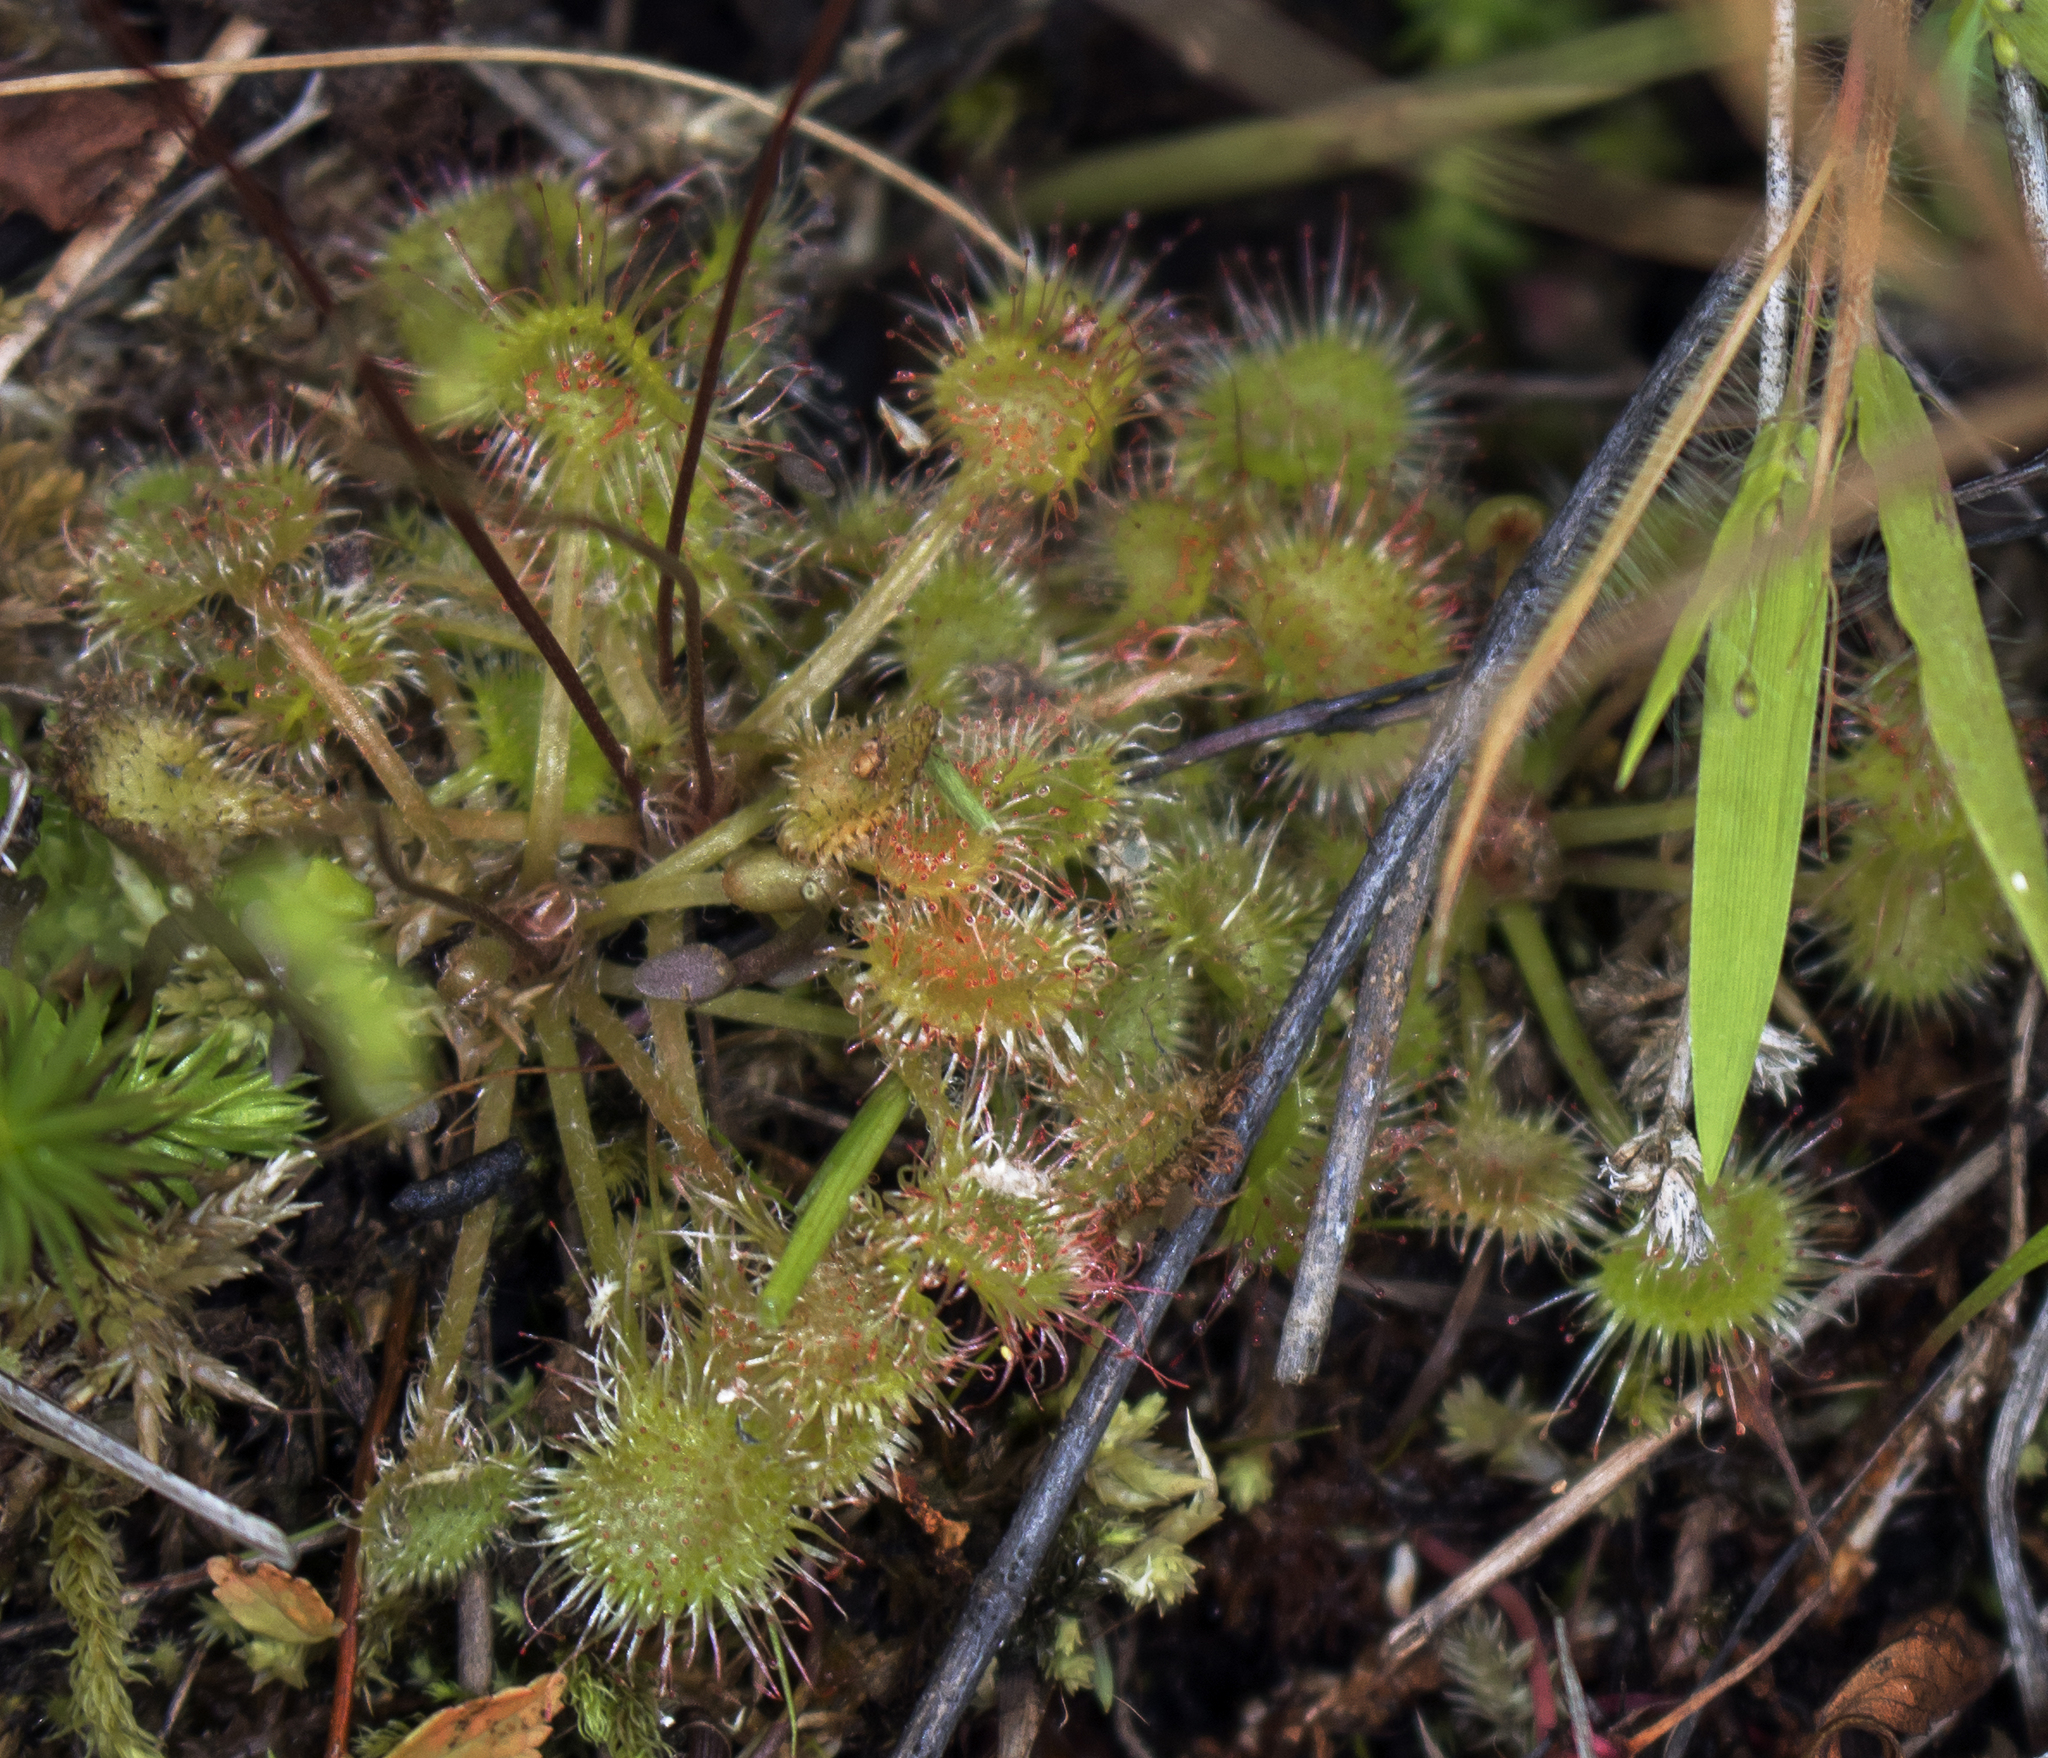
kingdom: Plantae
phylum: Tracheophyta
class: Magnoliopsida
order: Caryophyllales
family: Droseraceae
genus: Drosera
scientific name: Drosera rotundifolia
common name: Round-leaved sundew
